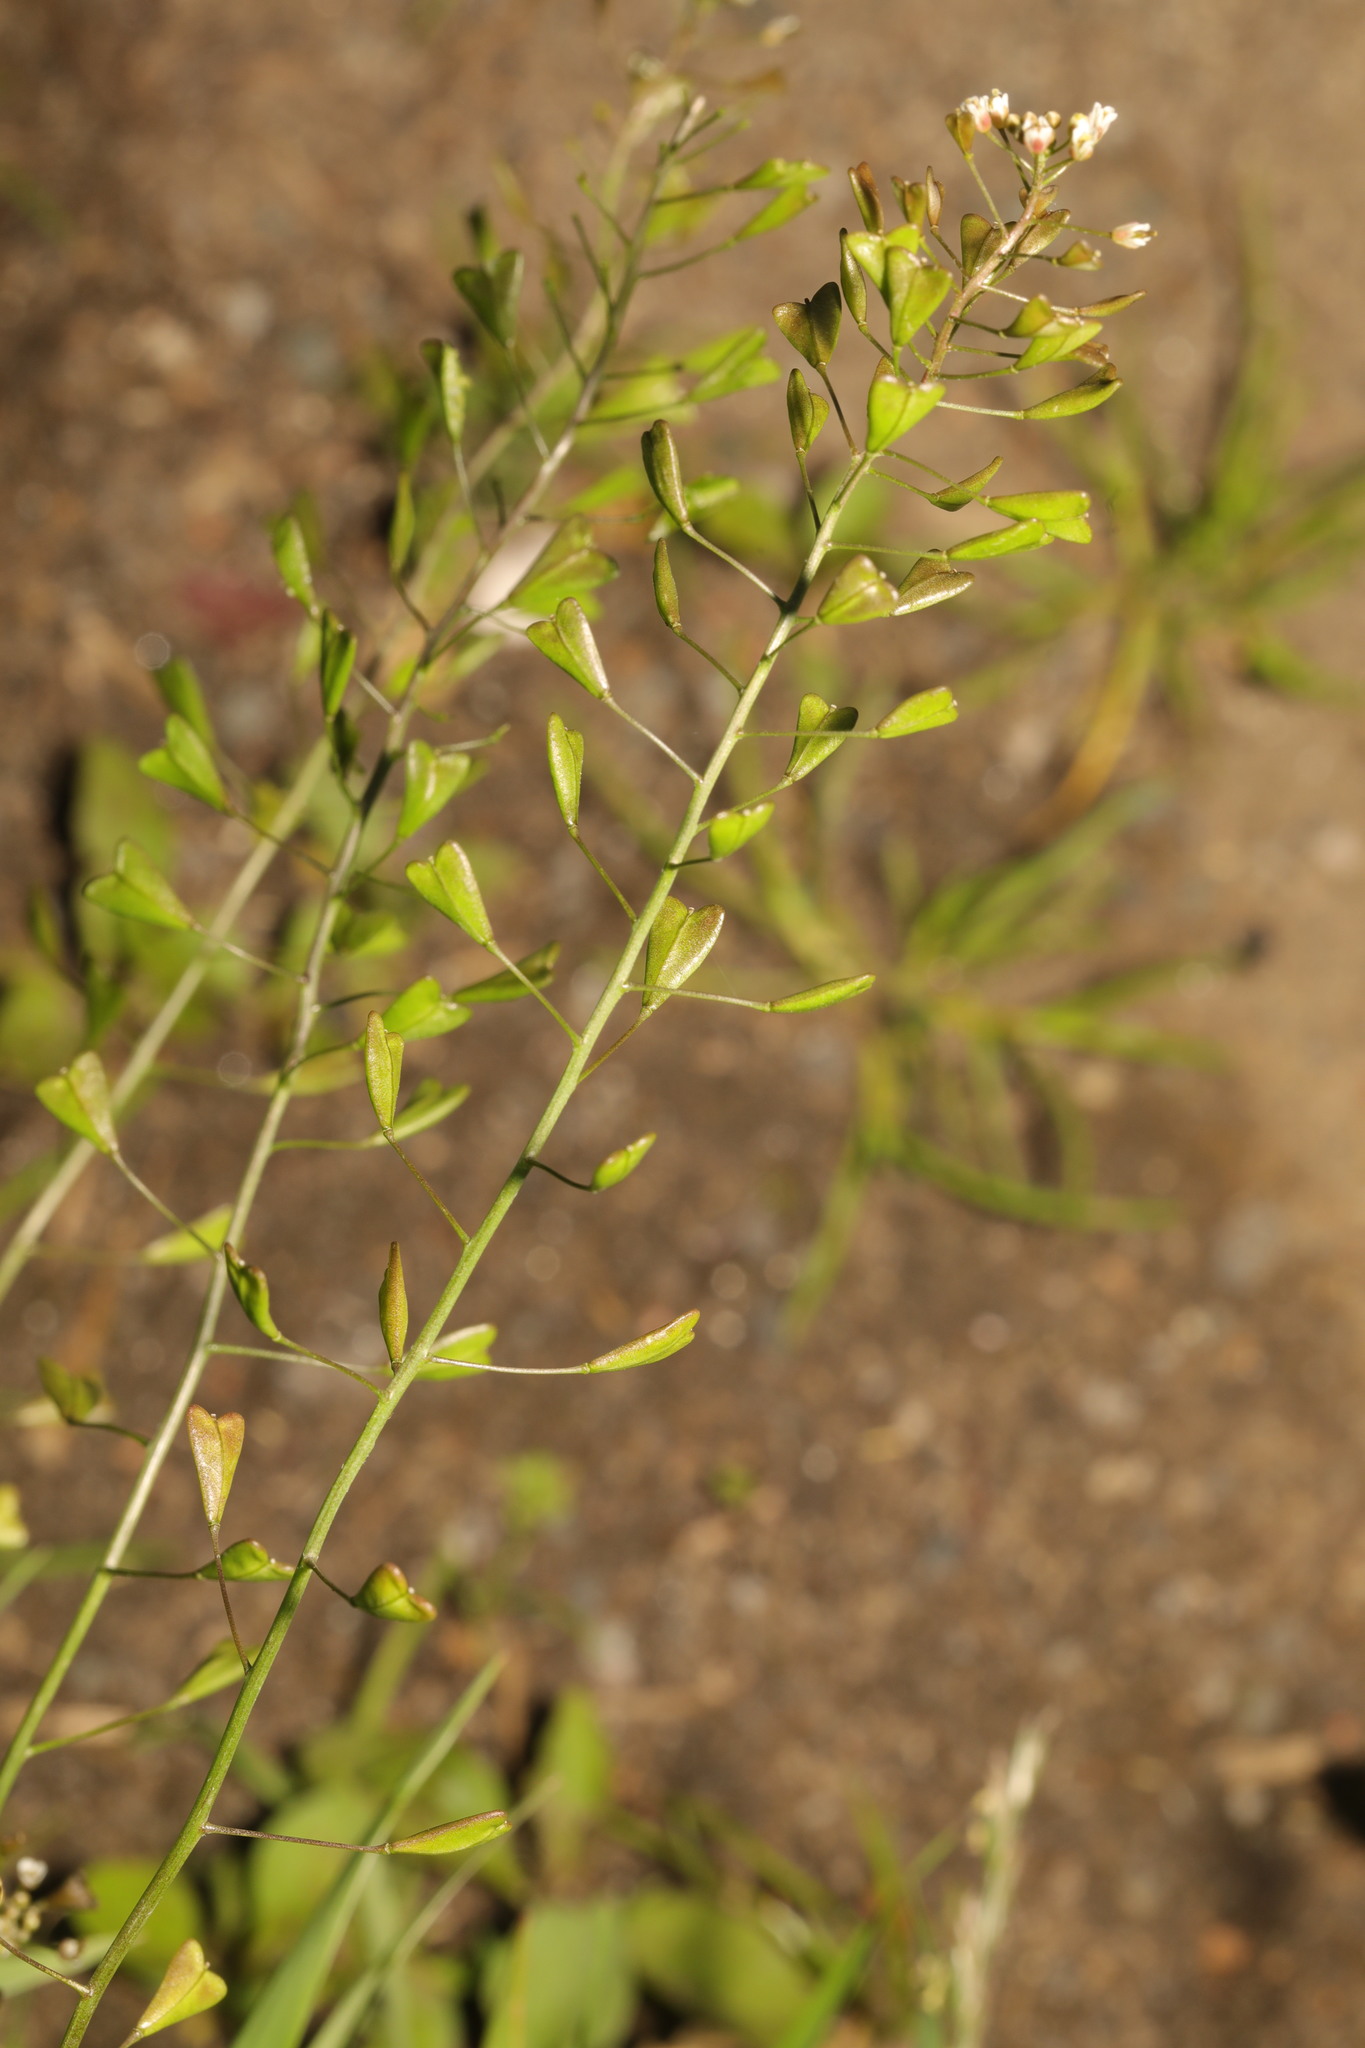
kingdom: Plantae
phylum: Tracheophyta
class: Magnoliopsida
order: Brassicales
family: Brassicaceae
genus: Capsella
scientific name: Capsella bursa-pastoris
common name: Shepherd's purse
